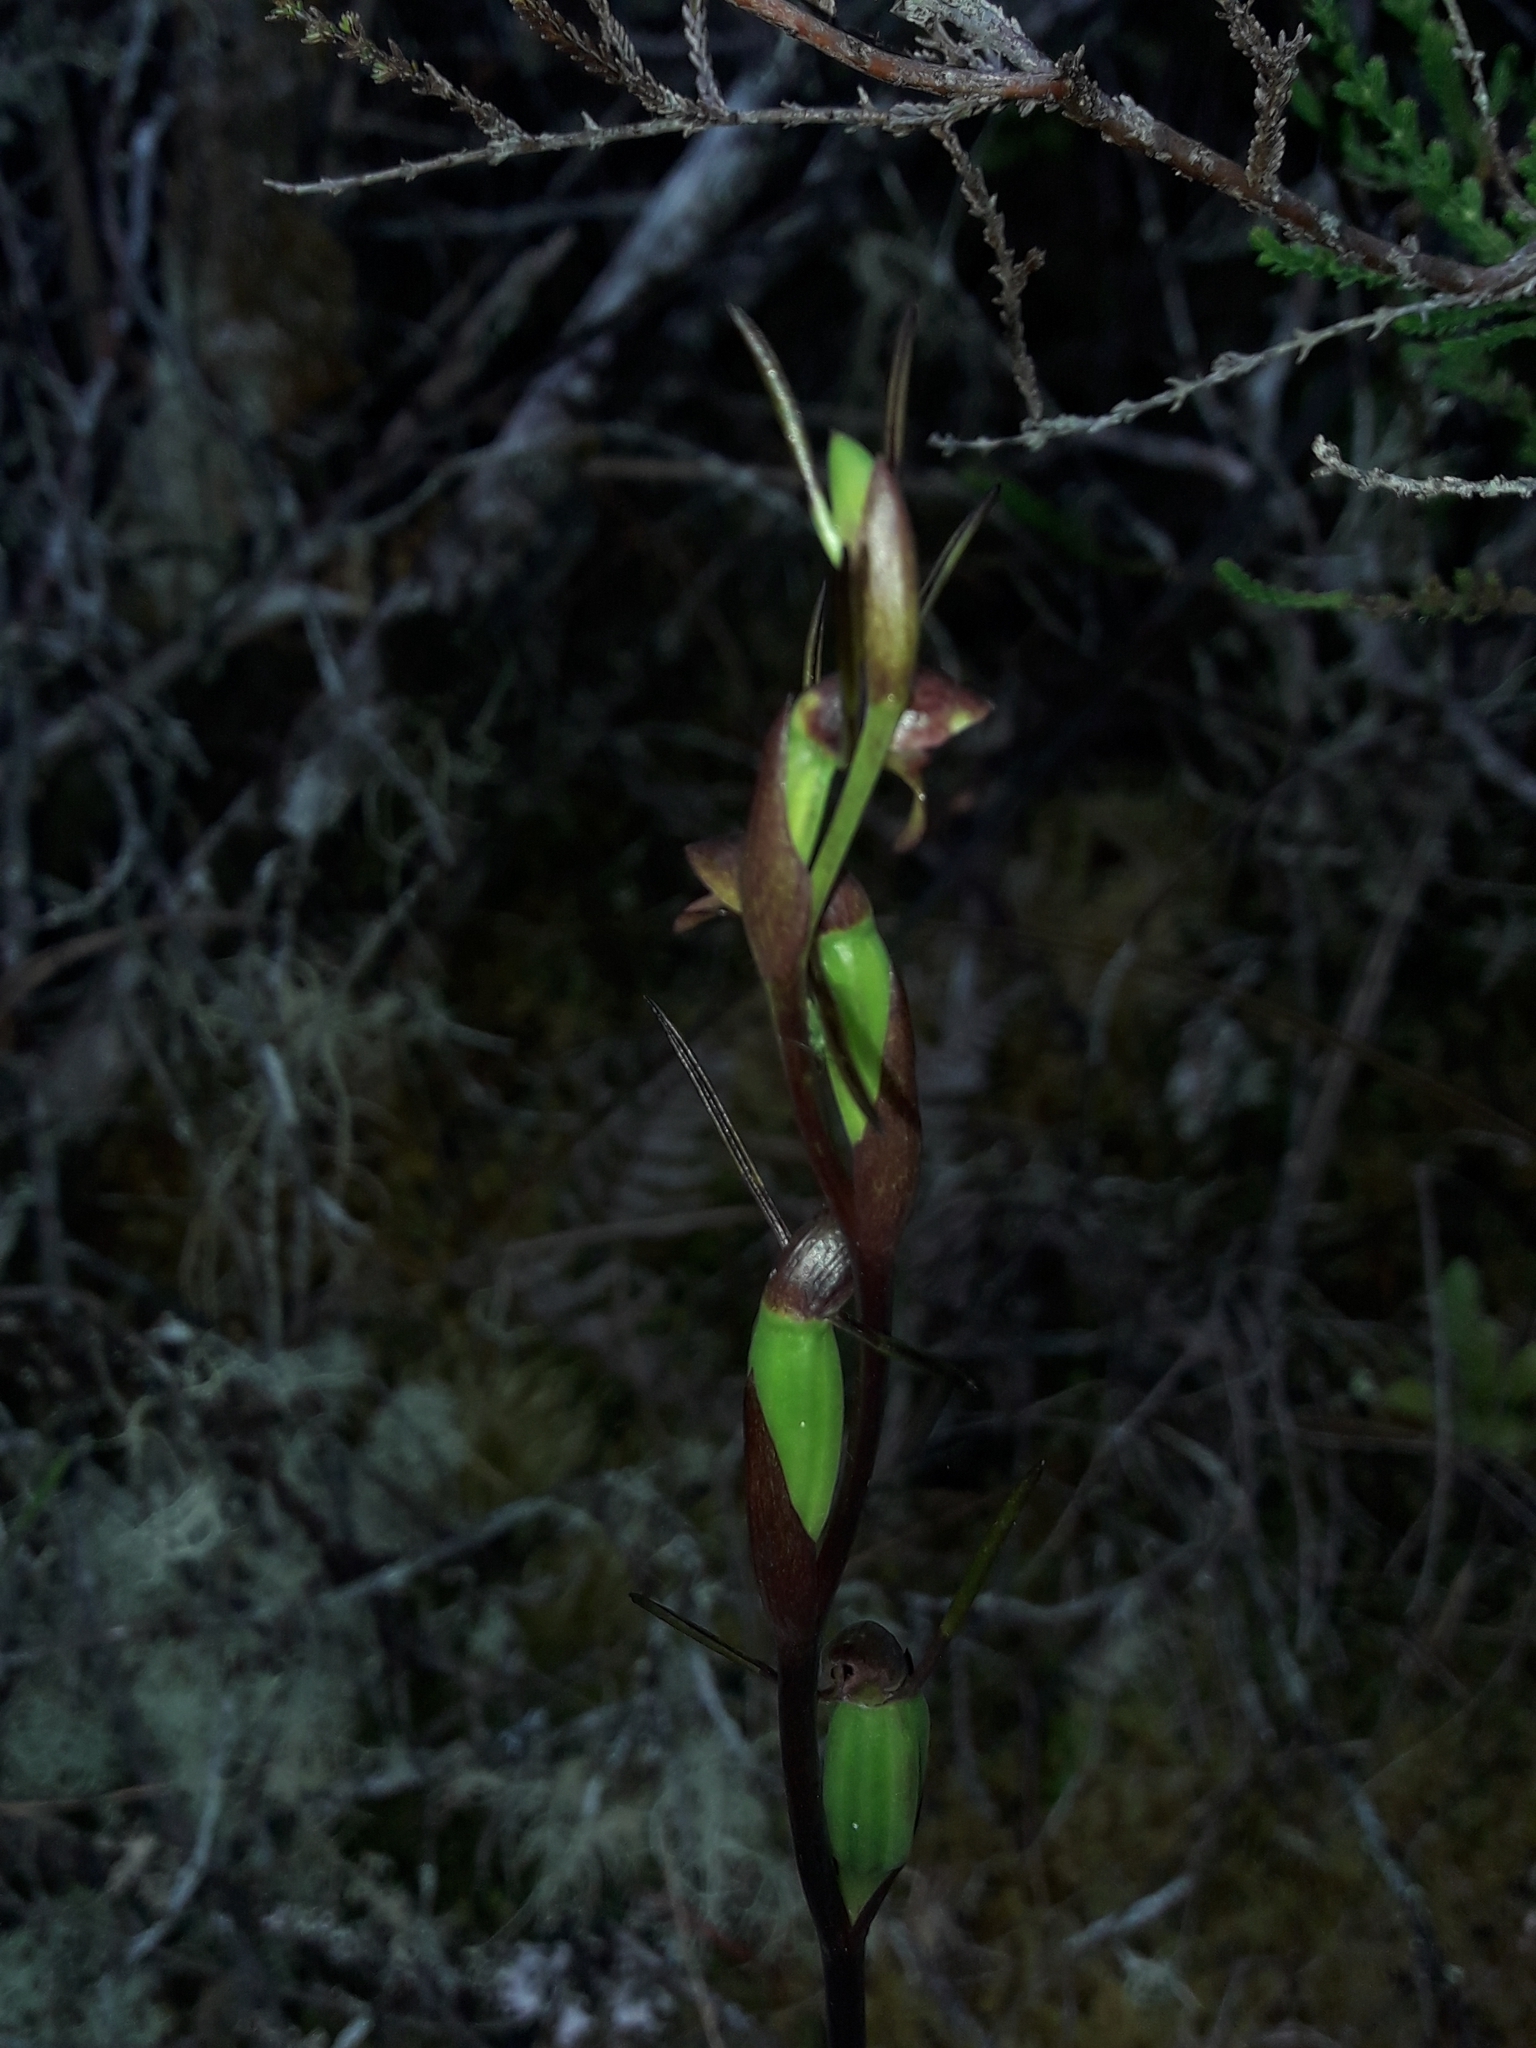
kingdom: Plantae
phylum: Tracheophyta
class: Liliopsida
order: Asparagales
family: Orchidaceae
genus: Orthoceras
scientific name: Orthoceras novae-zeelandiae
